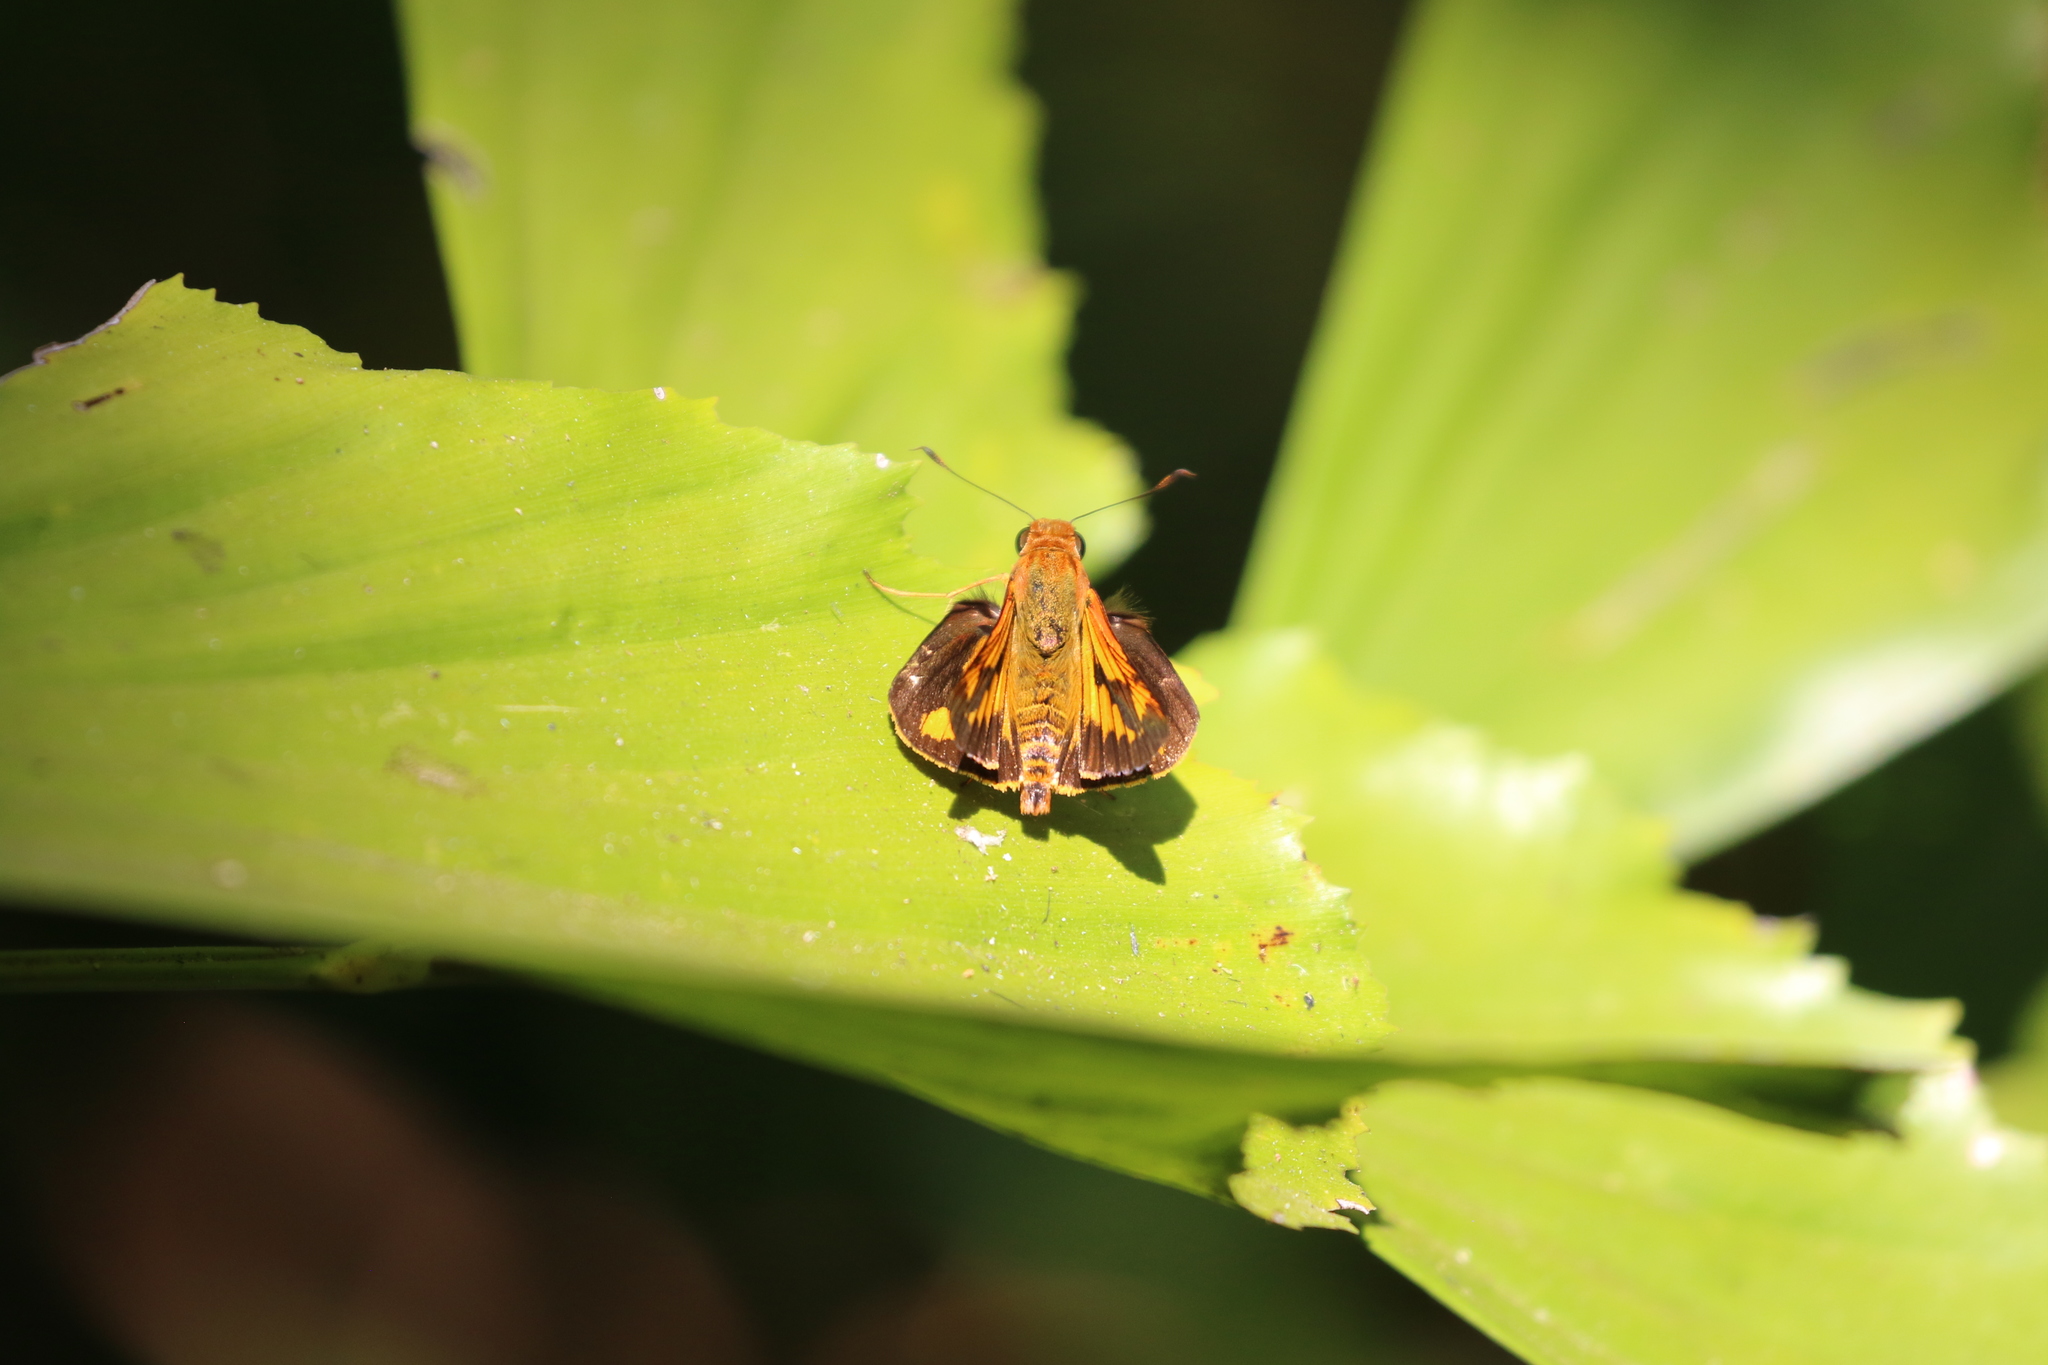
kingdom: Animalia
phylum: Arthropoda
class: Insecta
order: Lepidoptera
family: Hesperiidae
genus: Cephrenes
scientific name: Cephrenes augiades
